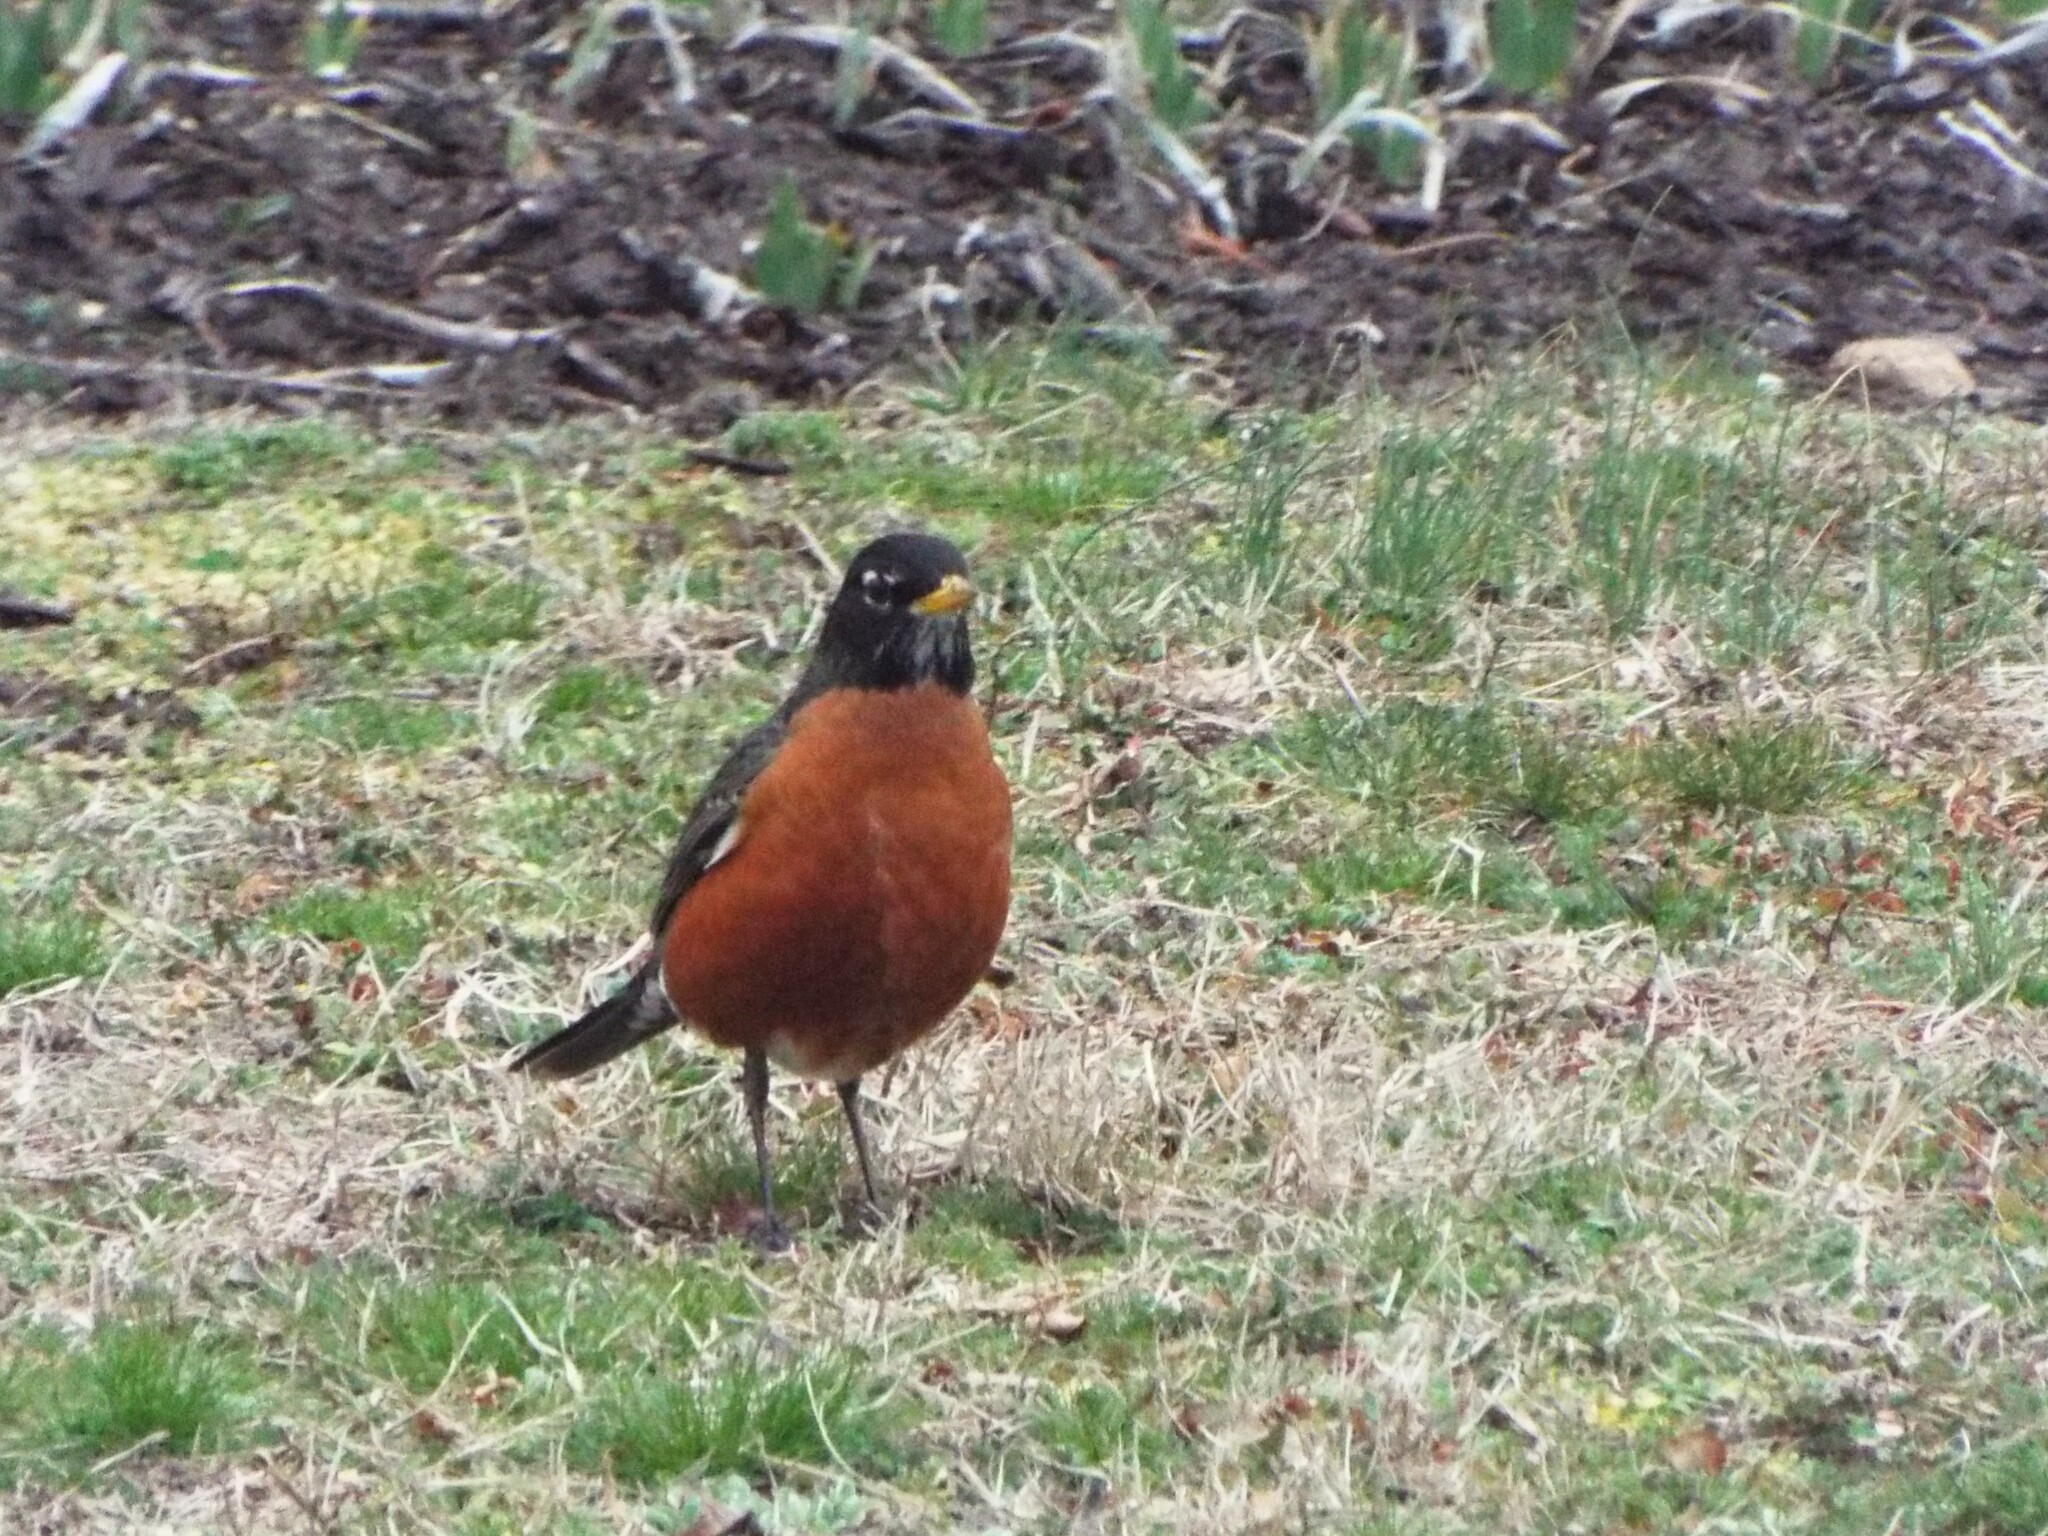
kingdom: Animalia
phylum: Chordata
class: Aves
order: Passeriformes
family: Turdidae
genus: Turdus
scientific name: Turdus migratorius
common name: American robin
